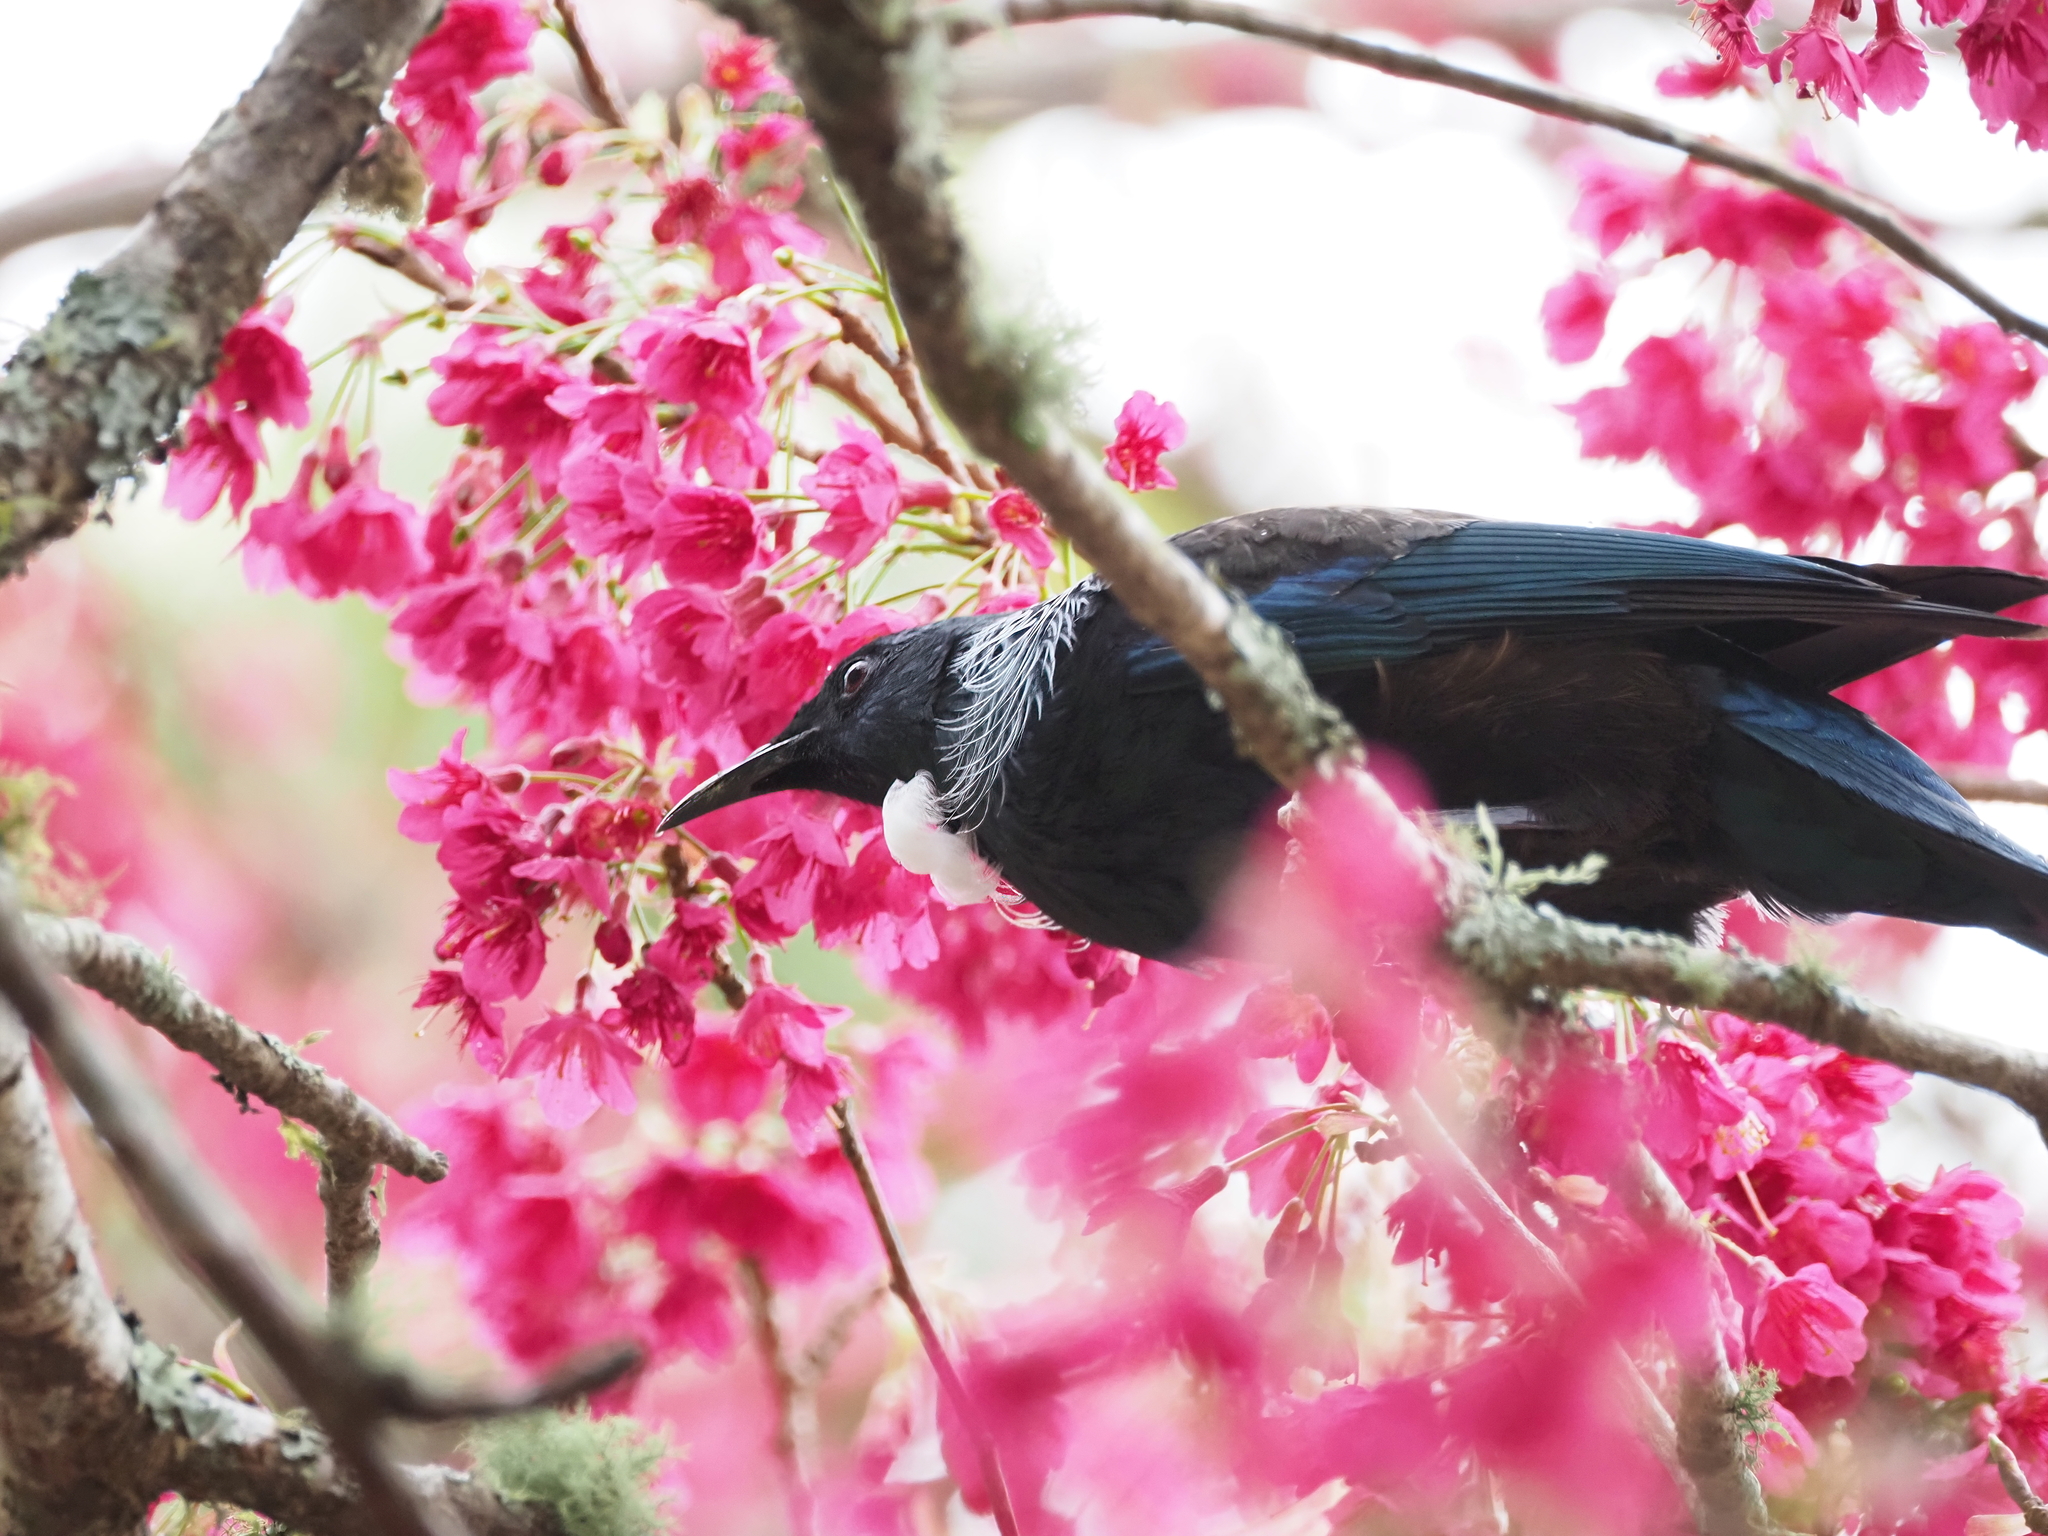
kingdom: Animalia
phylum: Chordata
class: Aves
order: Passeriformes
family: Meliphagidae
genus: Prosthemadera
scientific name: Prosthemadera novaeseelandiae
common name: Tui
